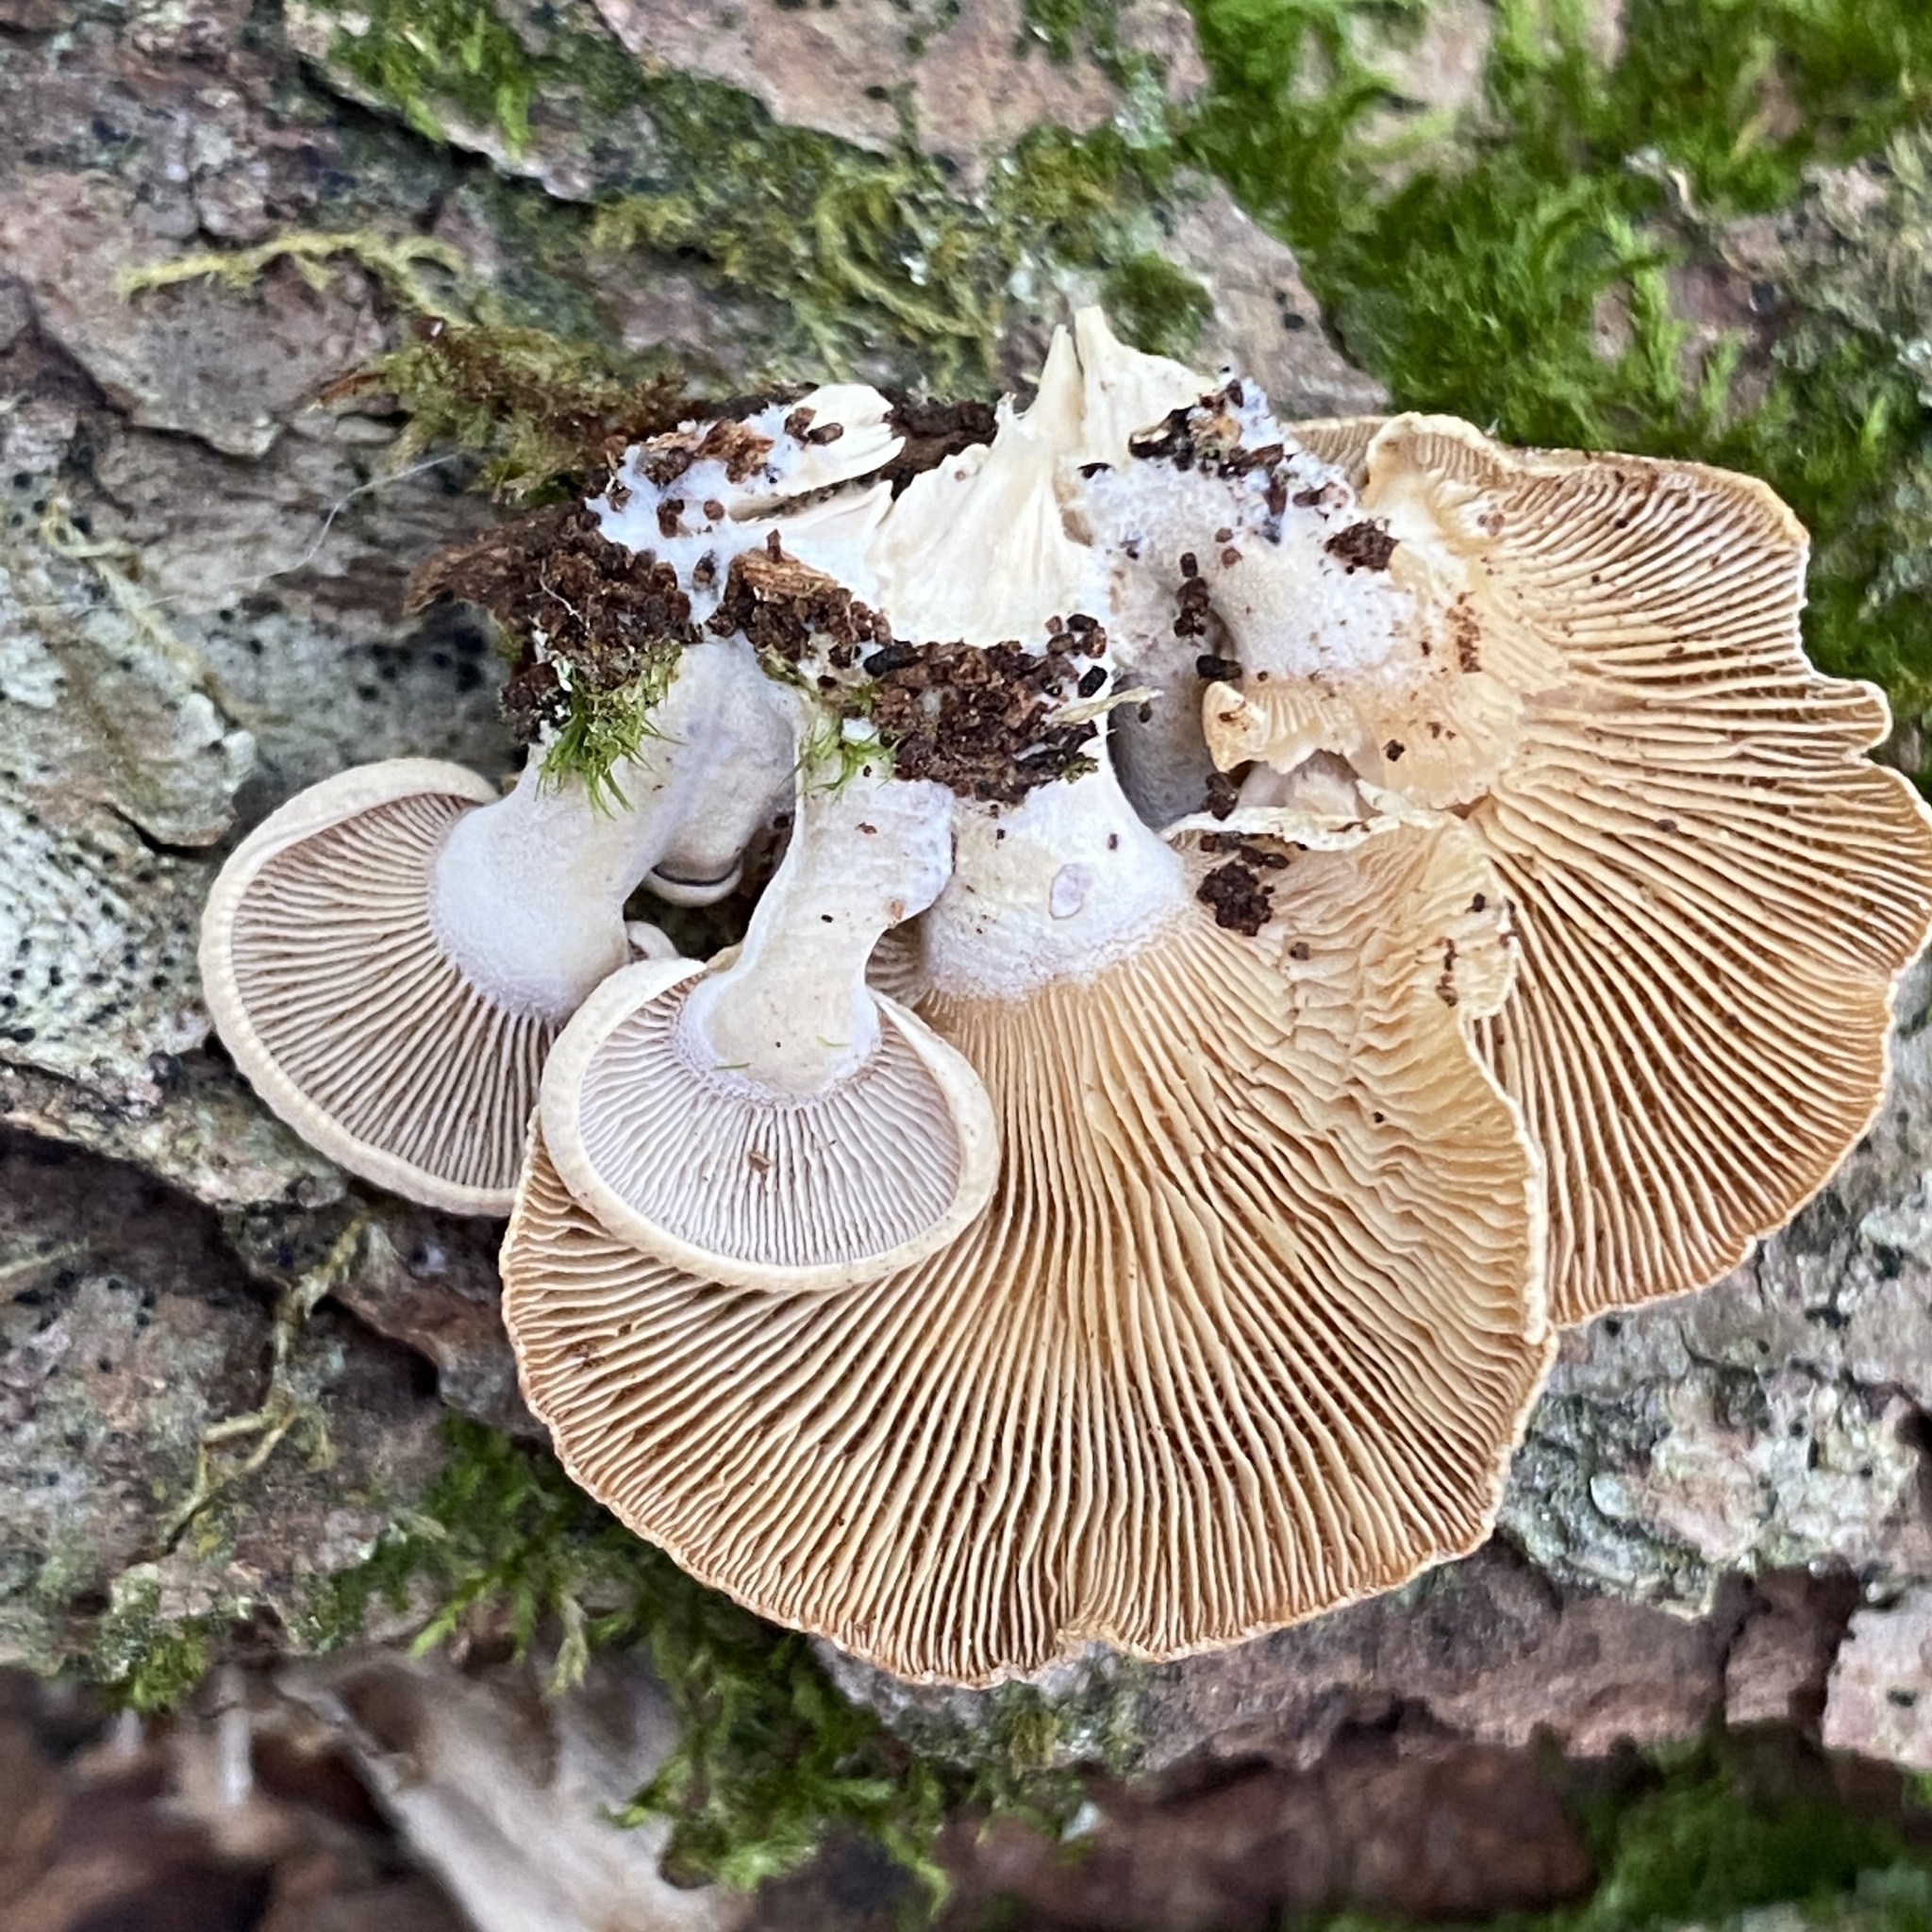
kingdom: Fungi
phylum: Basidiomycota
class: Agaricomycetes
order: Agaricales
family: Mycenaceae
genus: Panellus
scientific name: Panellus stipticus
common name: Bitter oysterling
